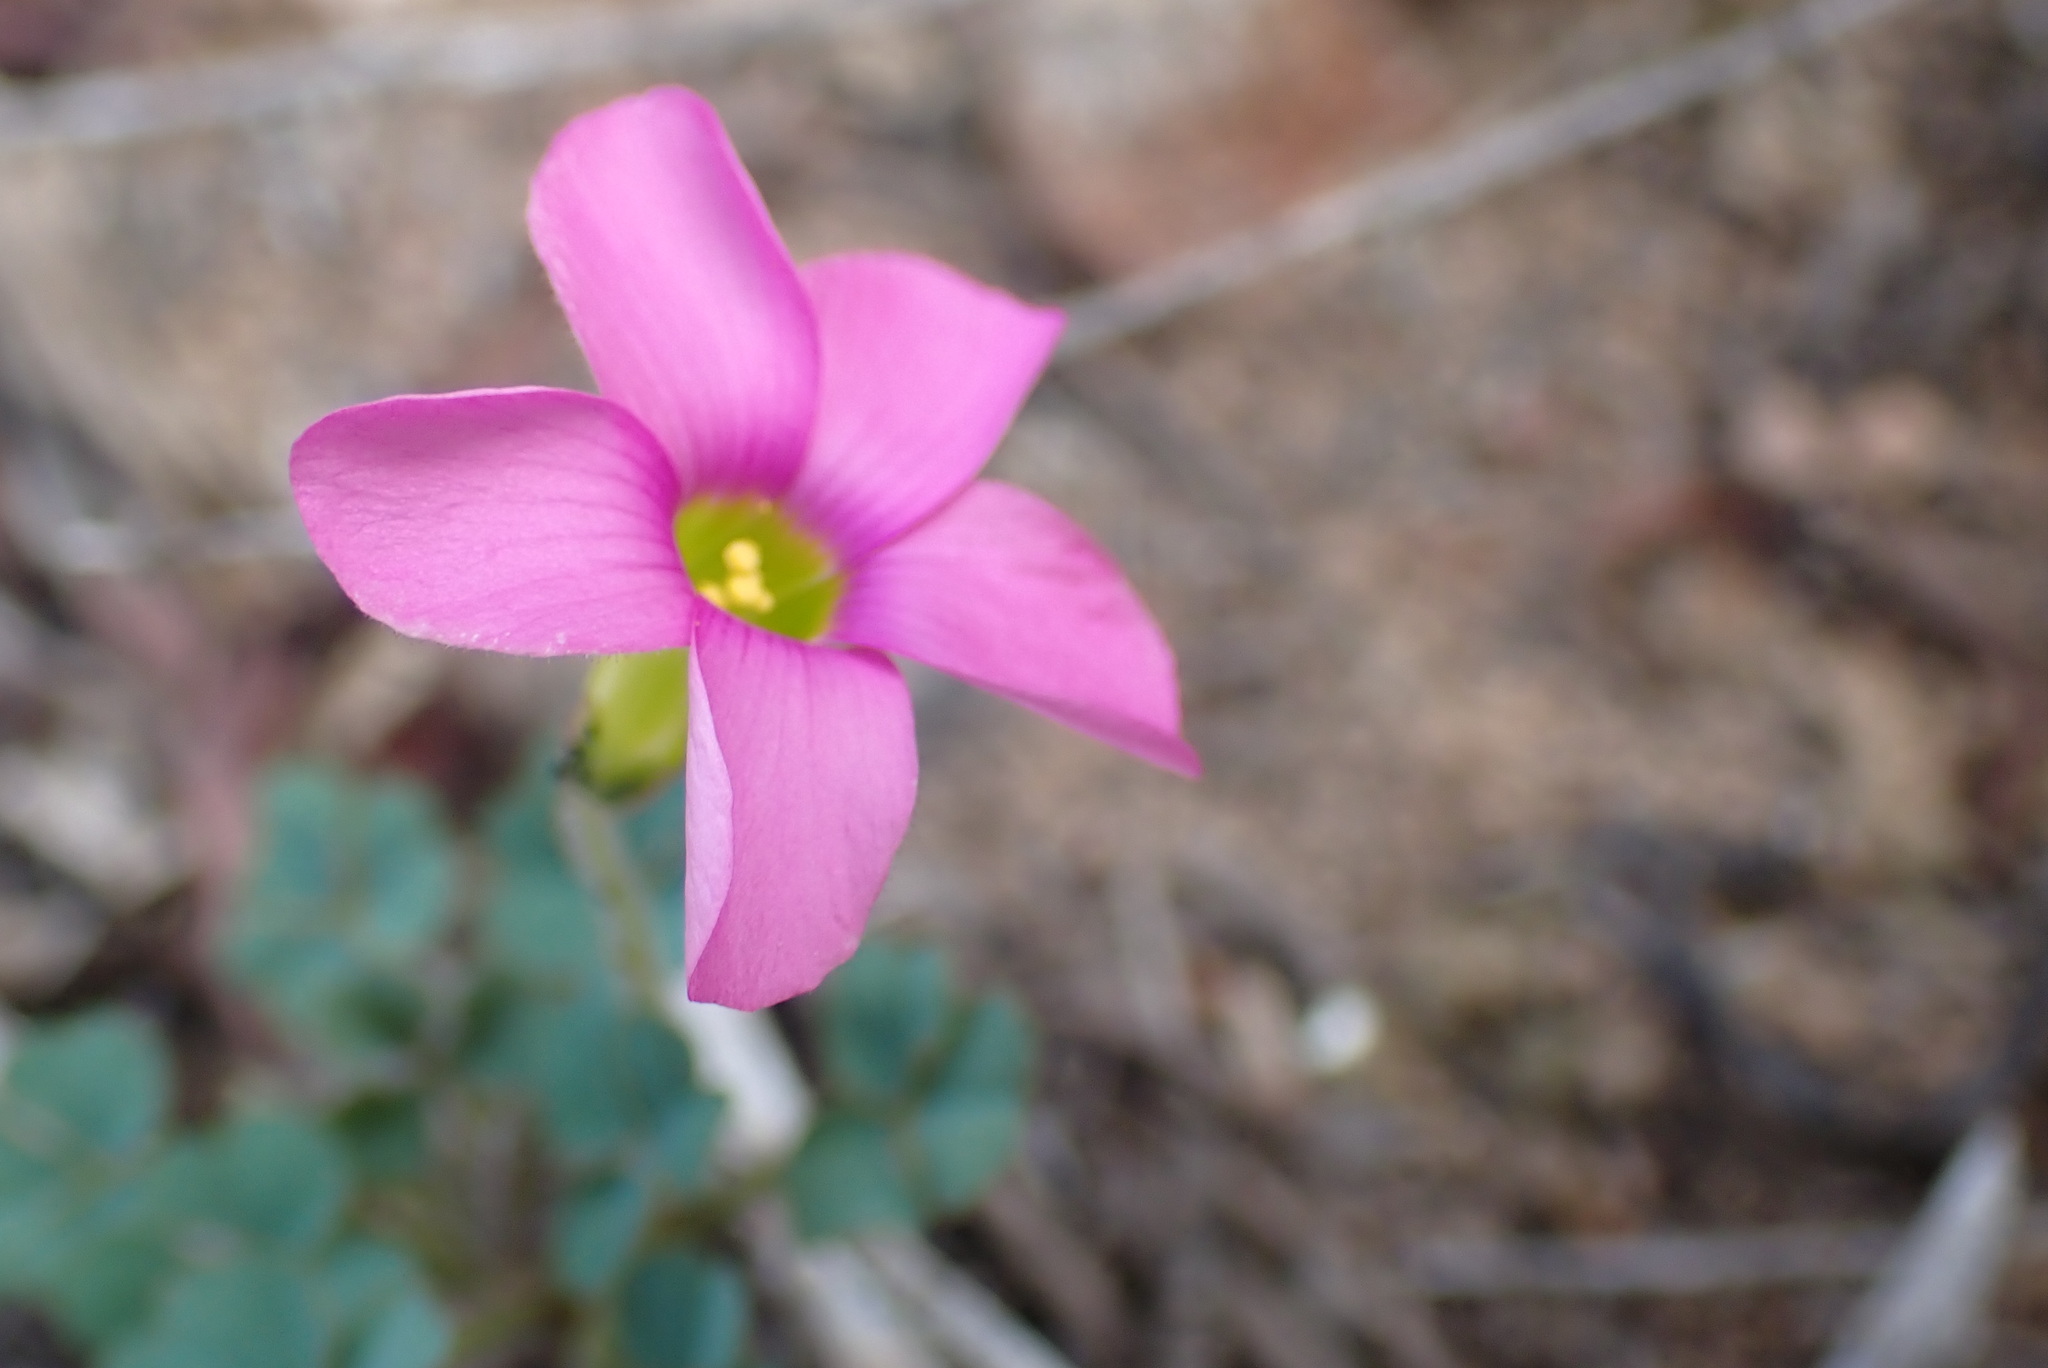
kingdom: Plantae
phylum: Tracheophyta
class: Magnoliopsida
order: Oxalidales
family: Oxalidaceae
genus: Oxalis
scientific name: Oxalis imbricata
